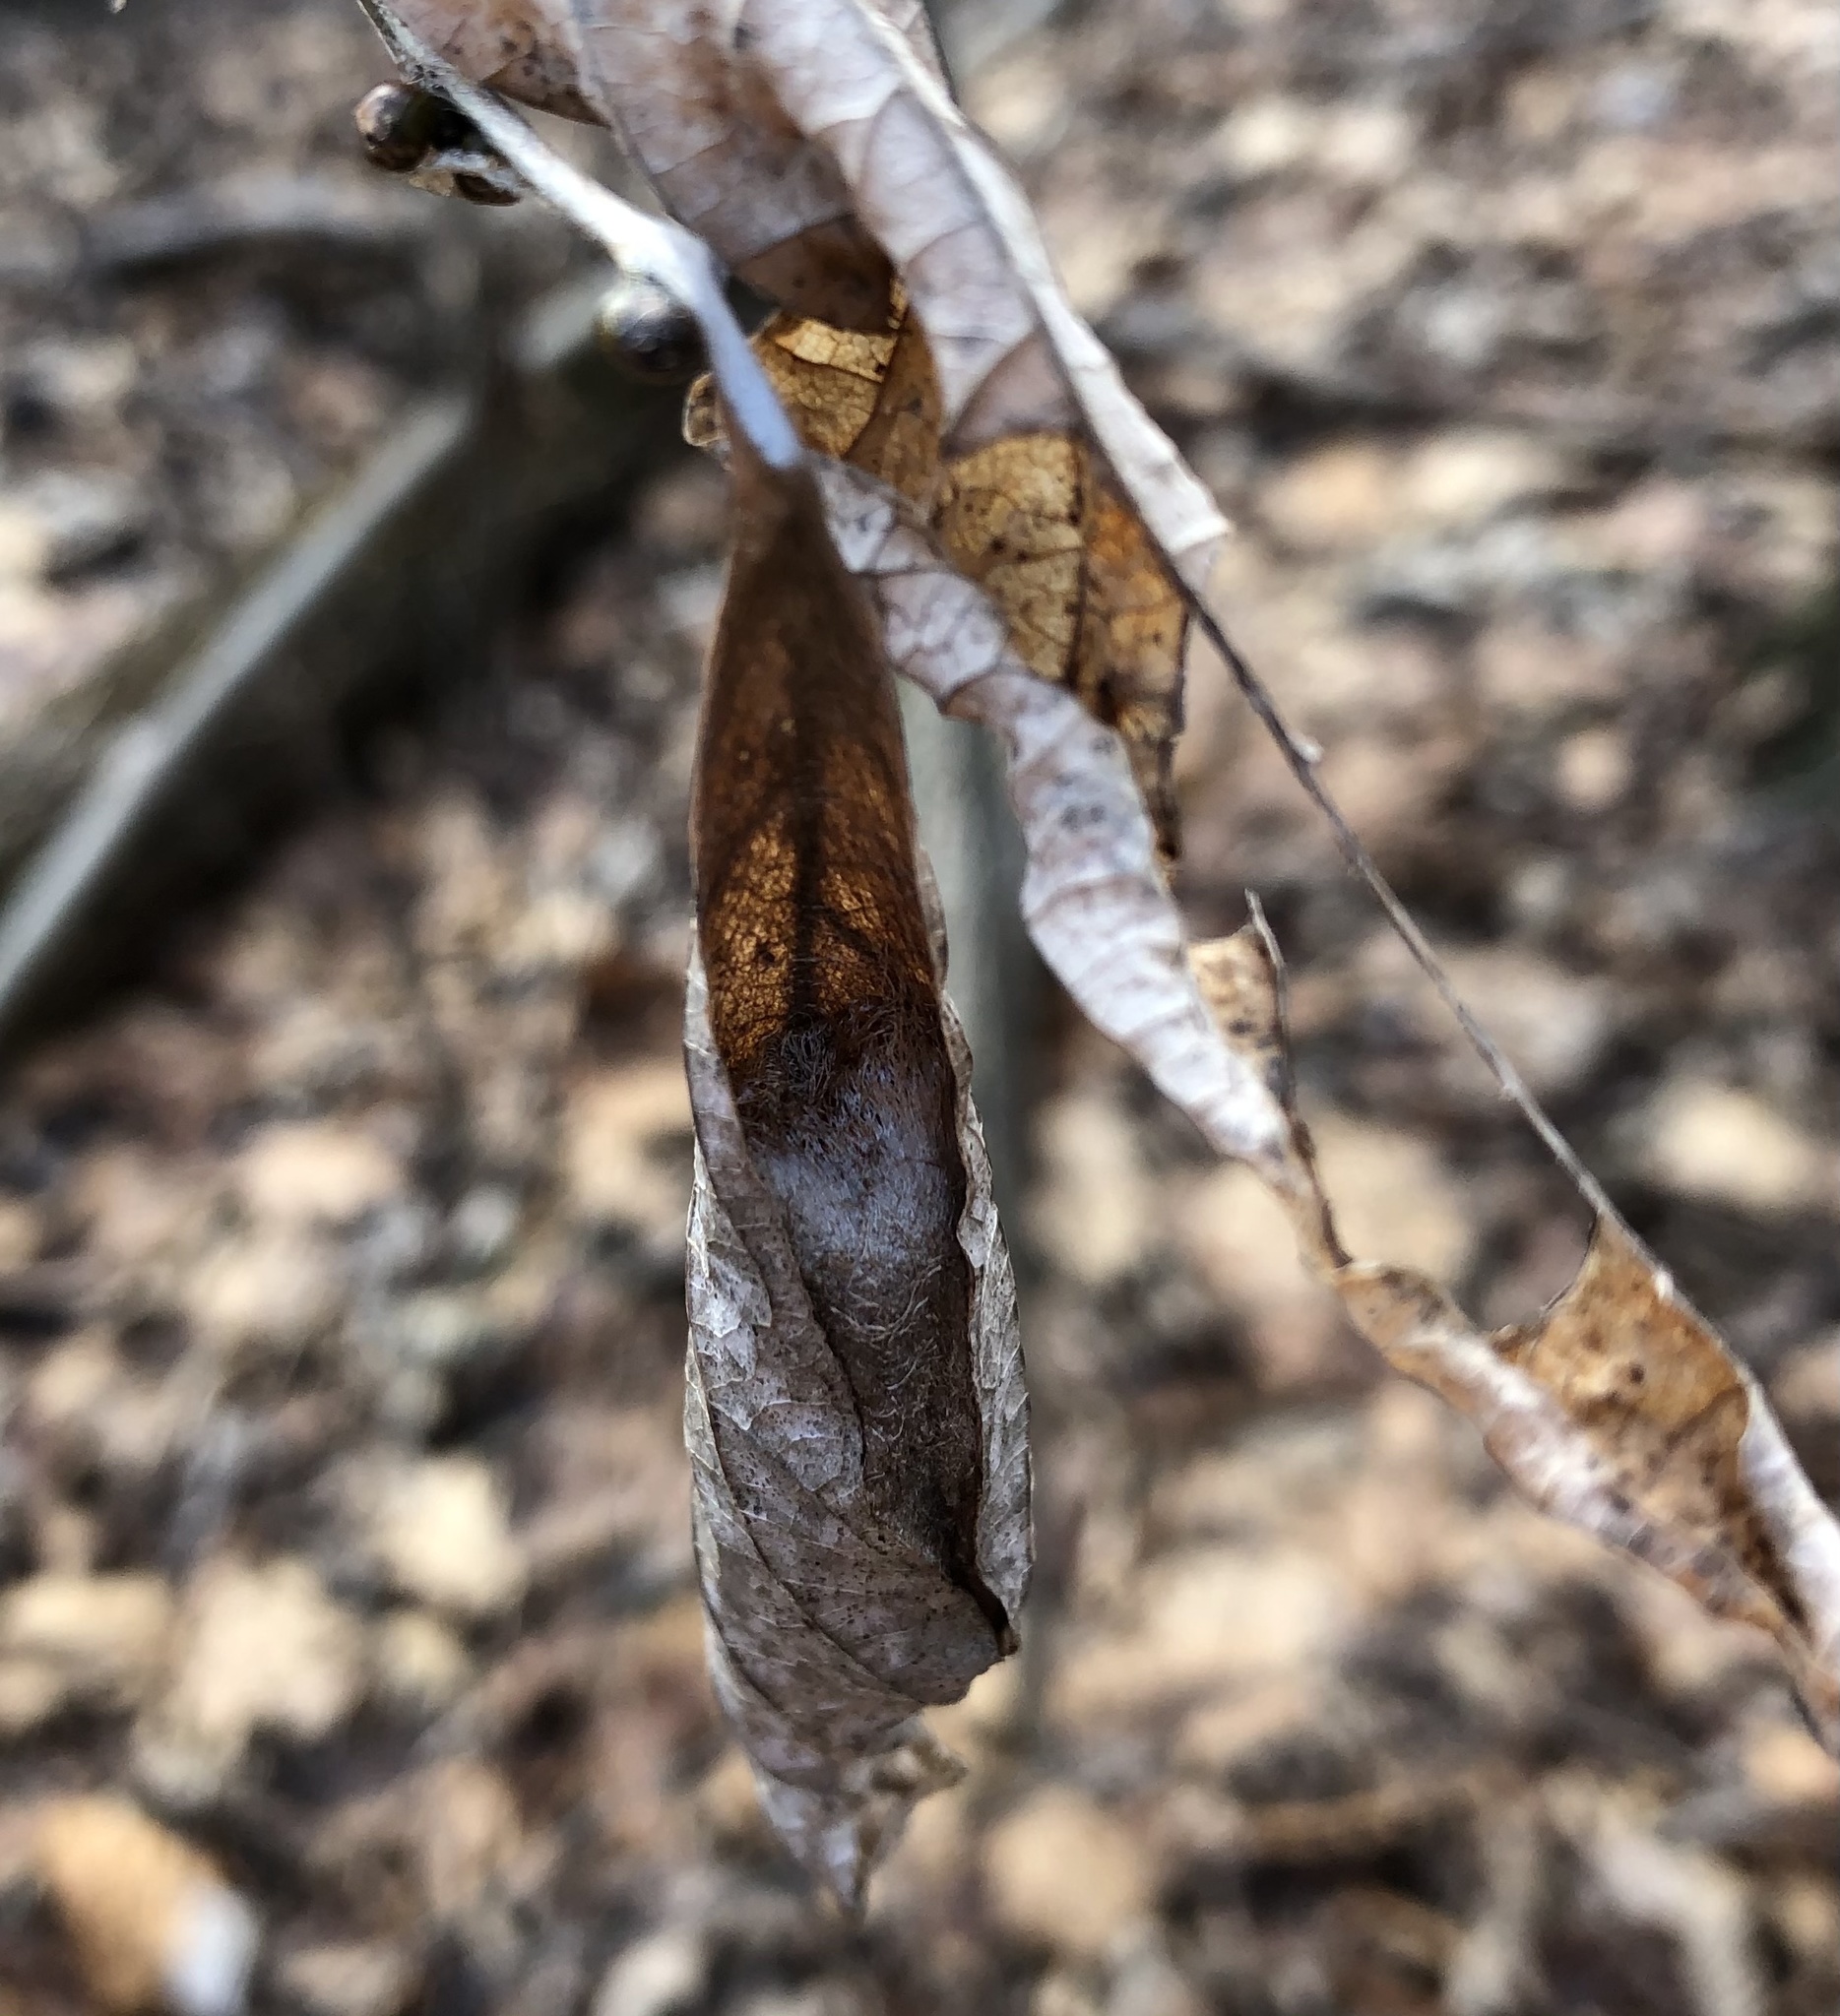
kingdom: Animalia
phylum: Arthropoda
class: Insecta
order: Lepidoptera
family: Saturniidae
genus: Callosamia
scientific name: Callosamia promethea
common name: Promethea silkmoth
